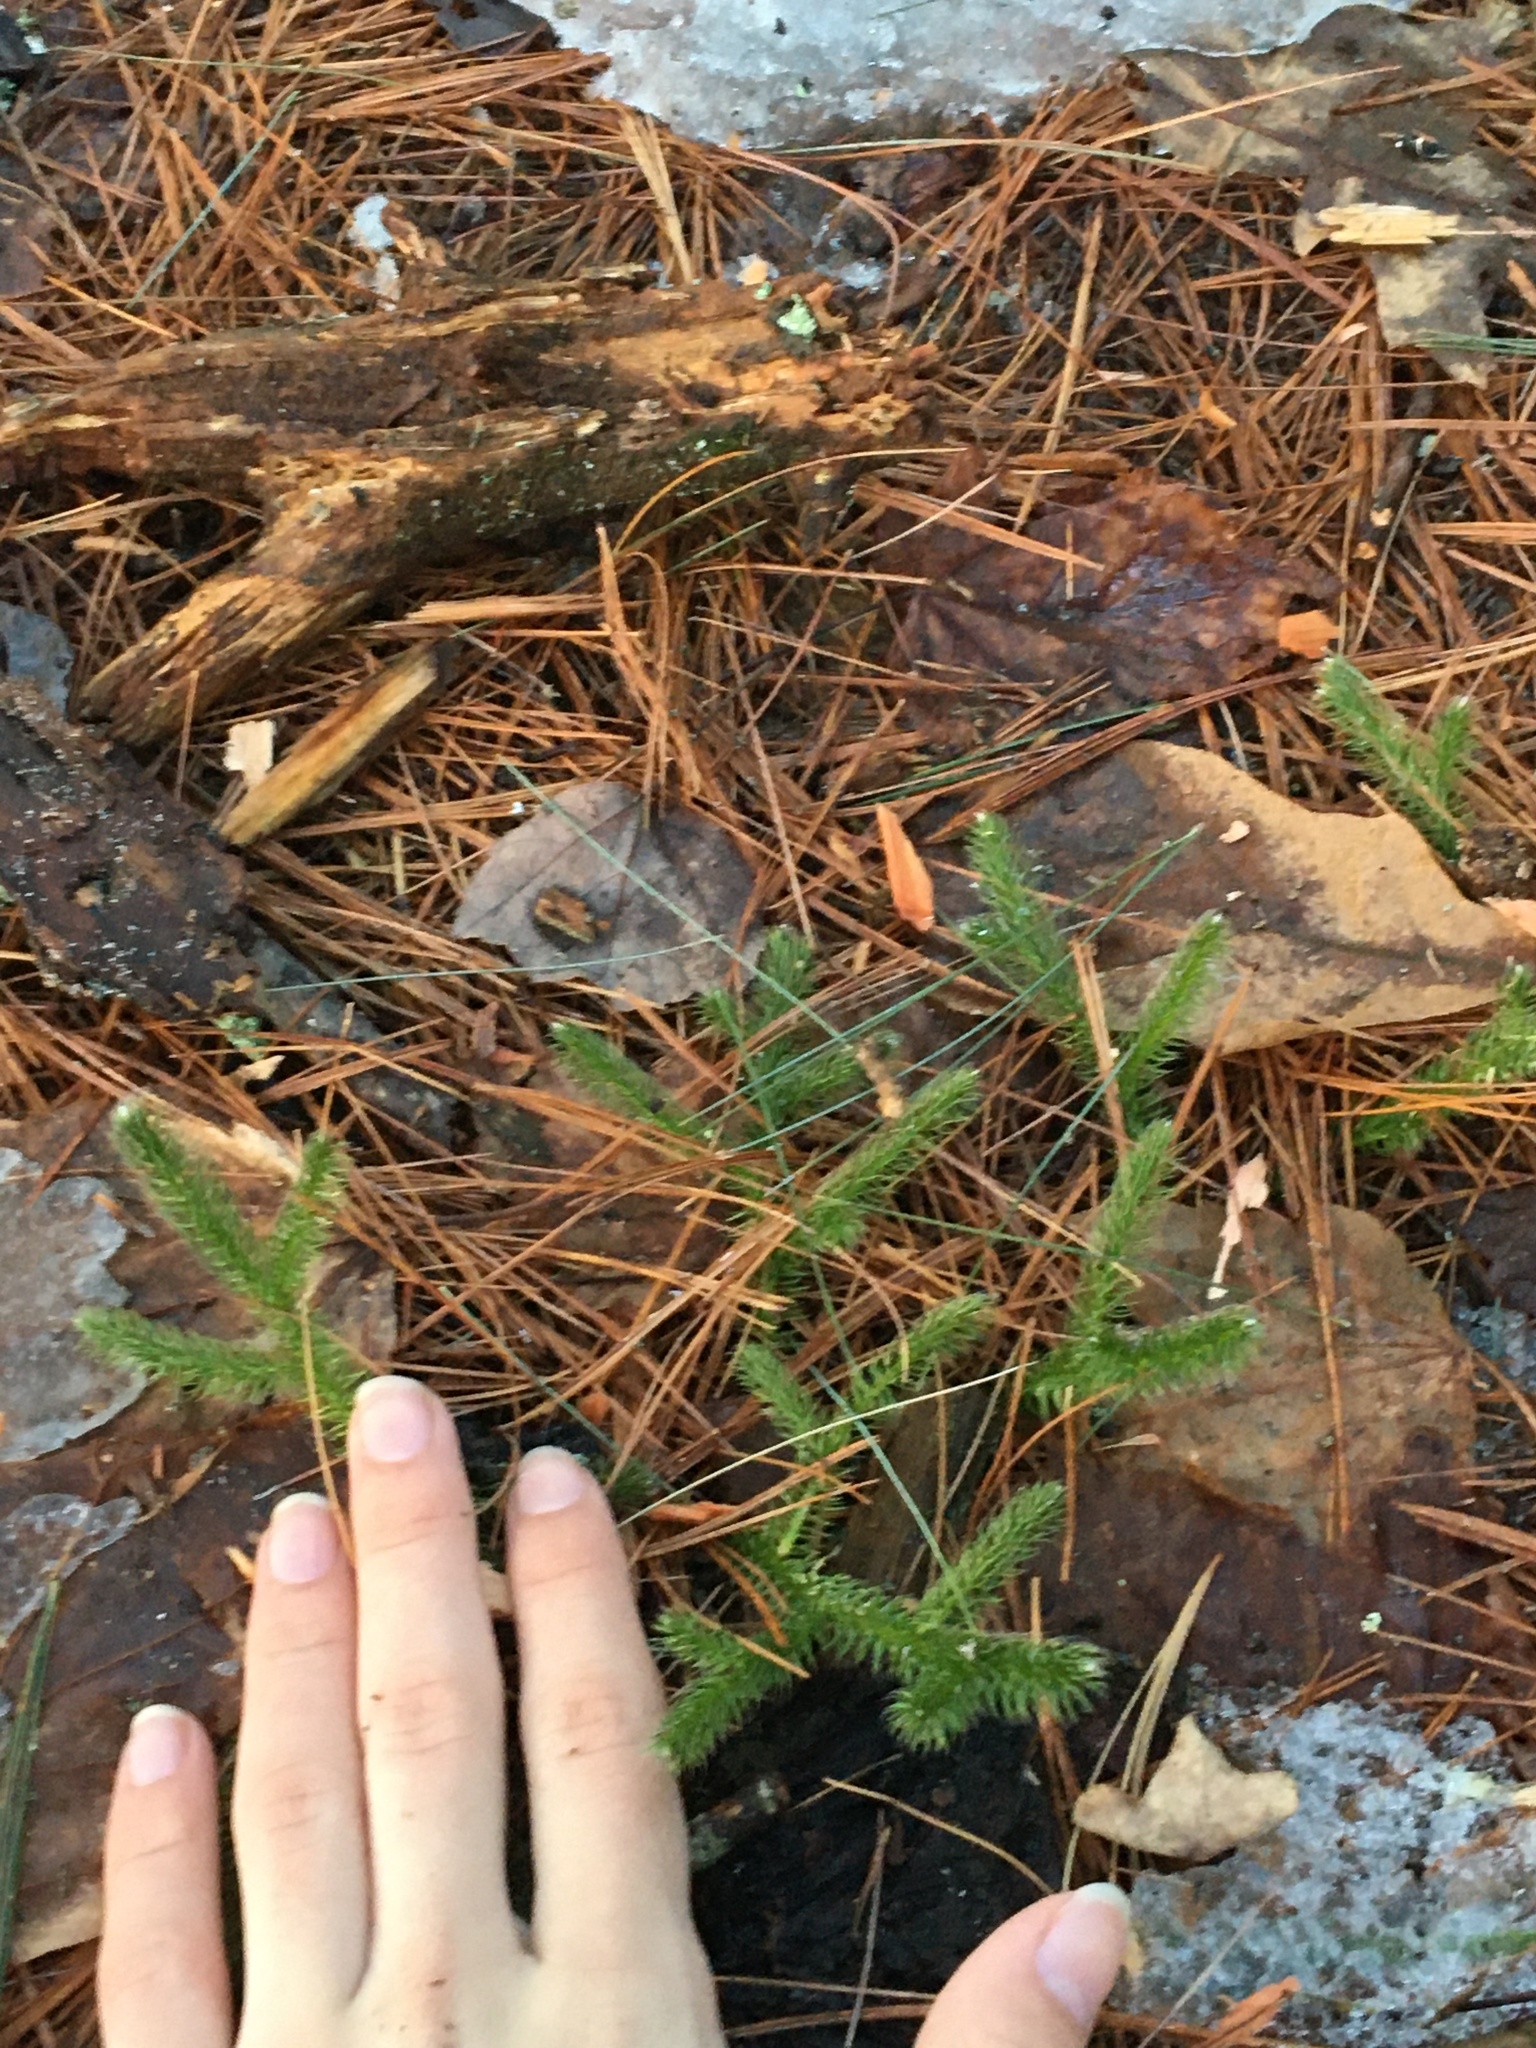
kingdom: Plantae
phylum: Tracheophyta
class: Lycopodiopsida
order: Lycopodiales
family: Lycopodiaceae
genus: Lycopodium
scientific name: Lycopodium clavatum
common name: Stag's-horn clubmoss
